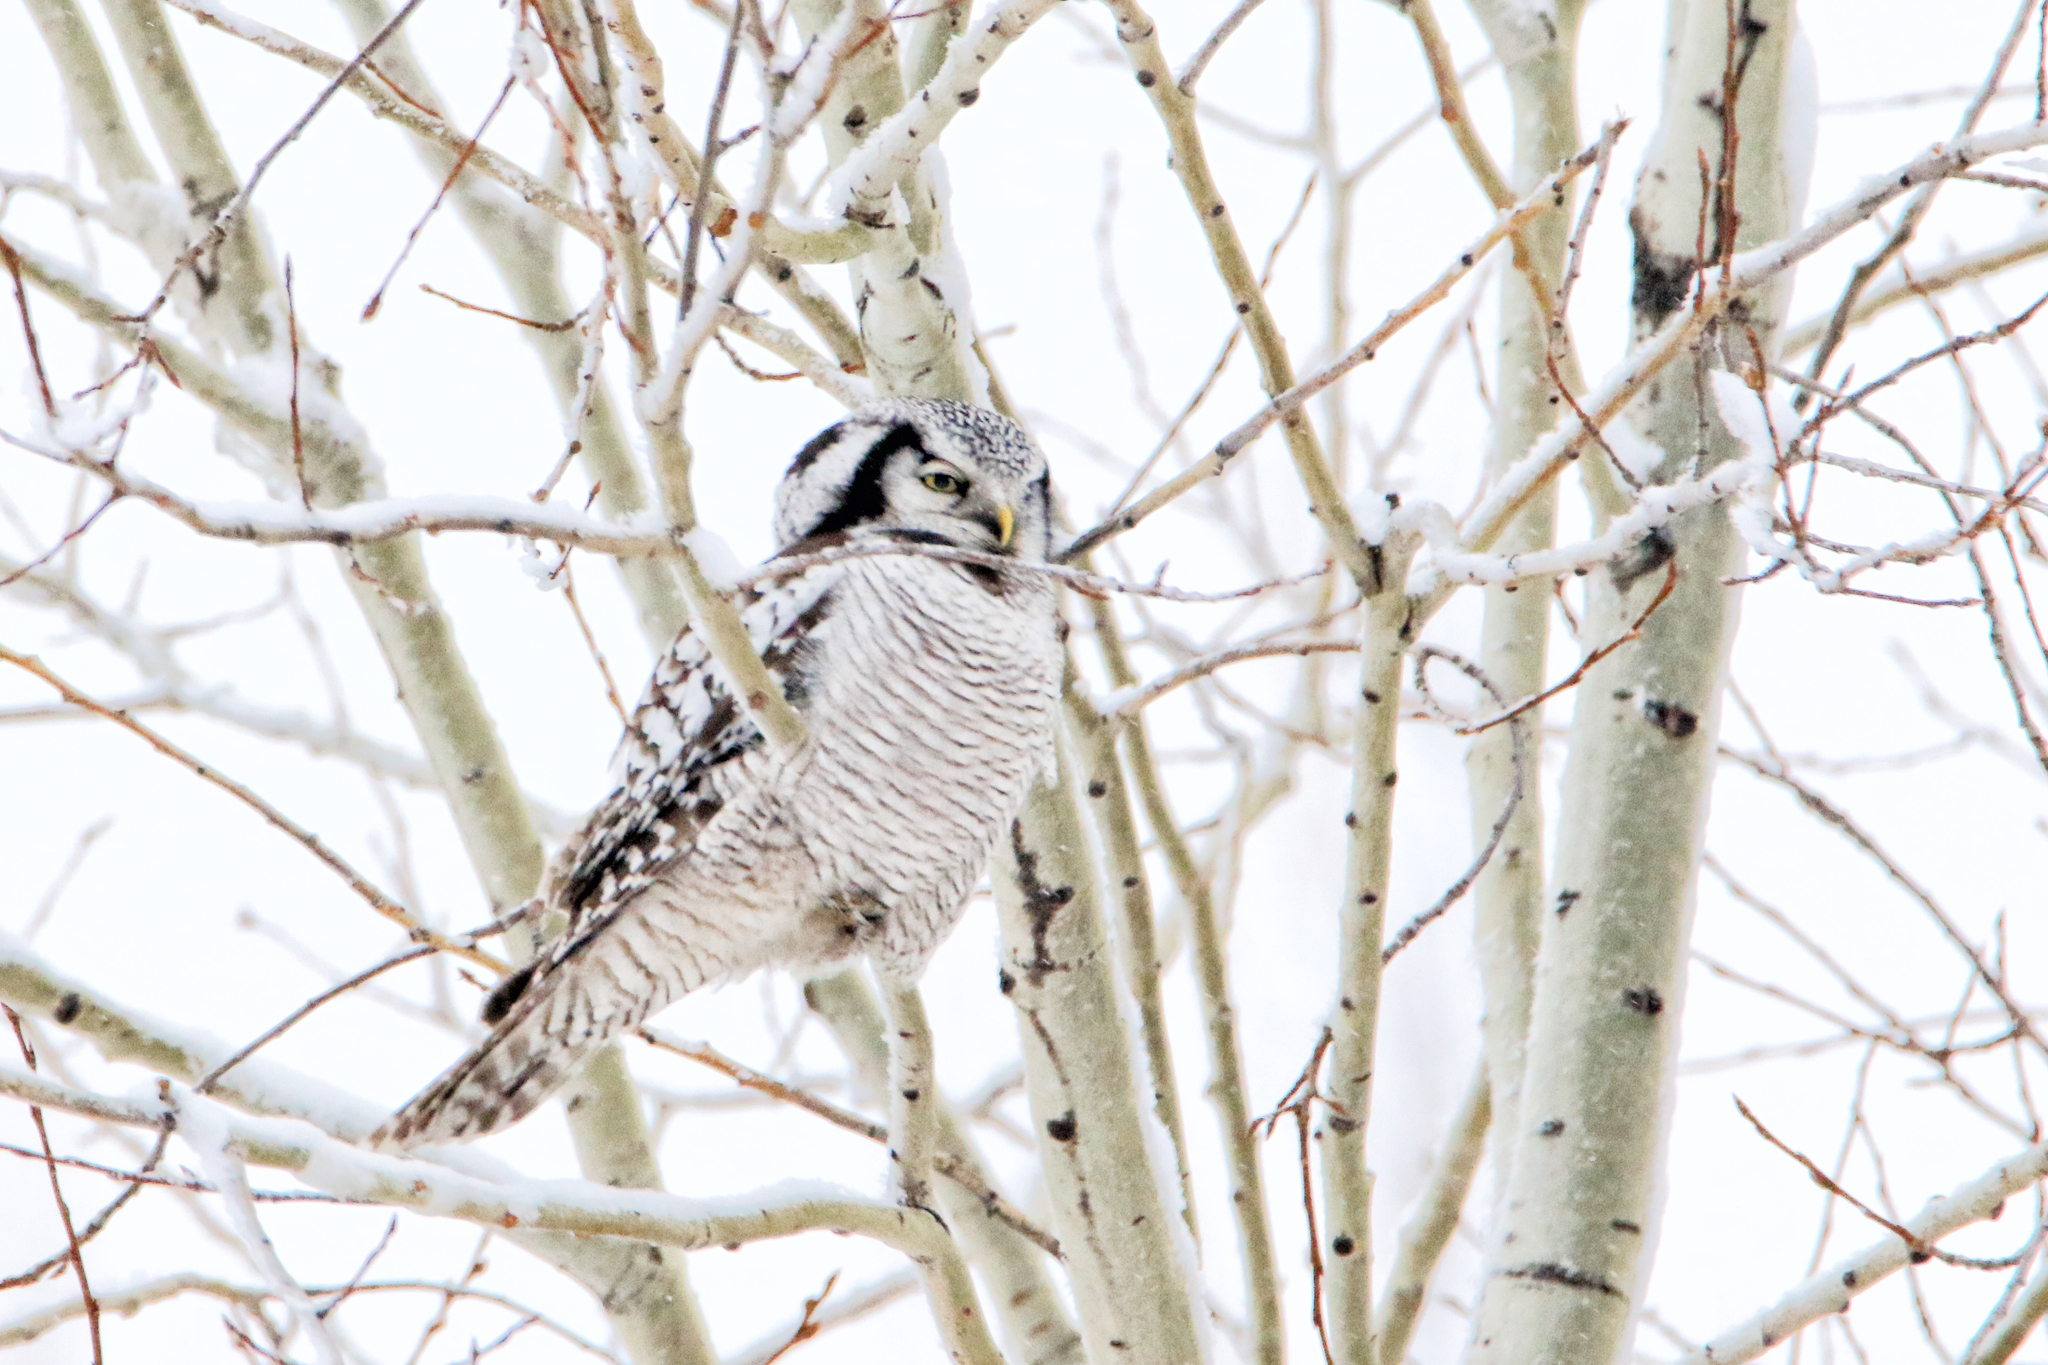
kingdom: Animalia
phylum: Chordata
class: Aves
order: Strigiformes
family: Strigidae
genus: Surnia
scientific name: Surnia ulula
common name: Northern hawk-owl
